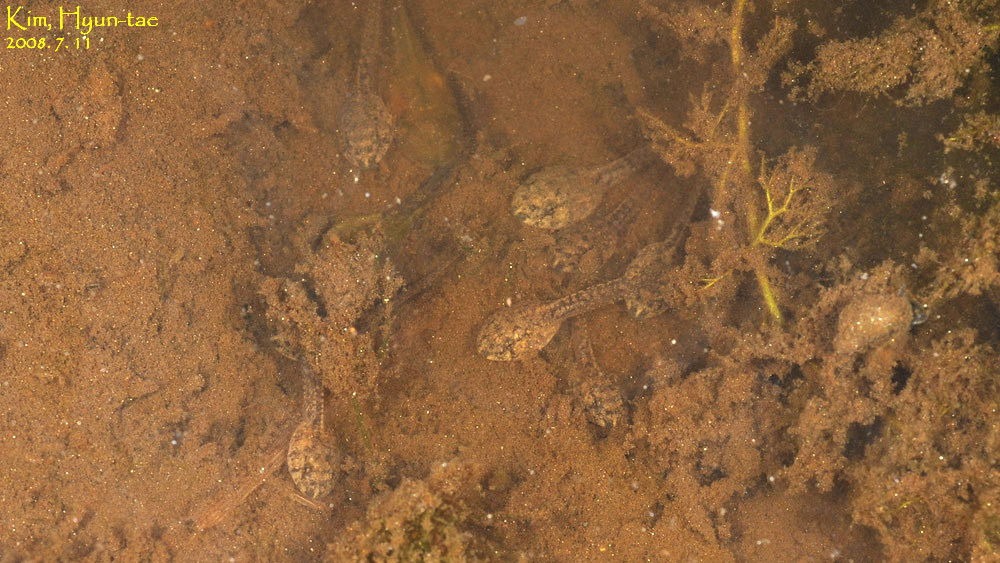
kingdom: Animalia
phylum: Chordata
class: Amphibia
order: Anura
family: Ranidae
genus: Glandirana
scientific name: Glandirana emeljanovi
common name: Northeast china rough-skinned frog
